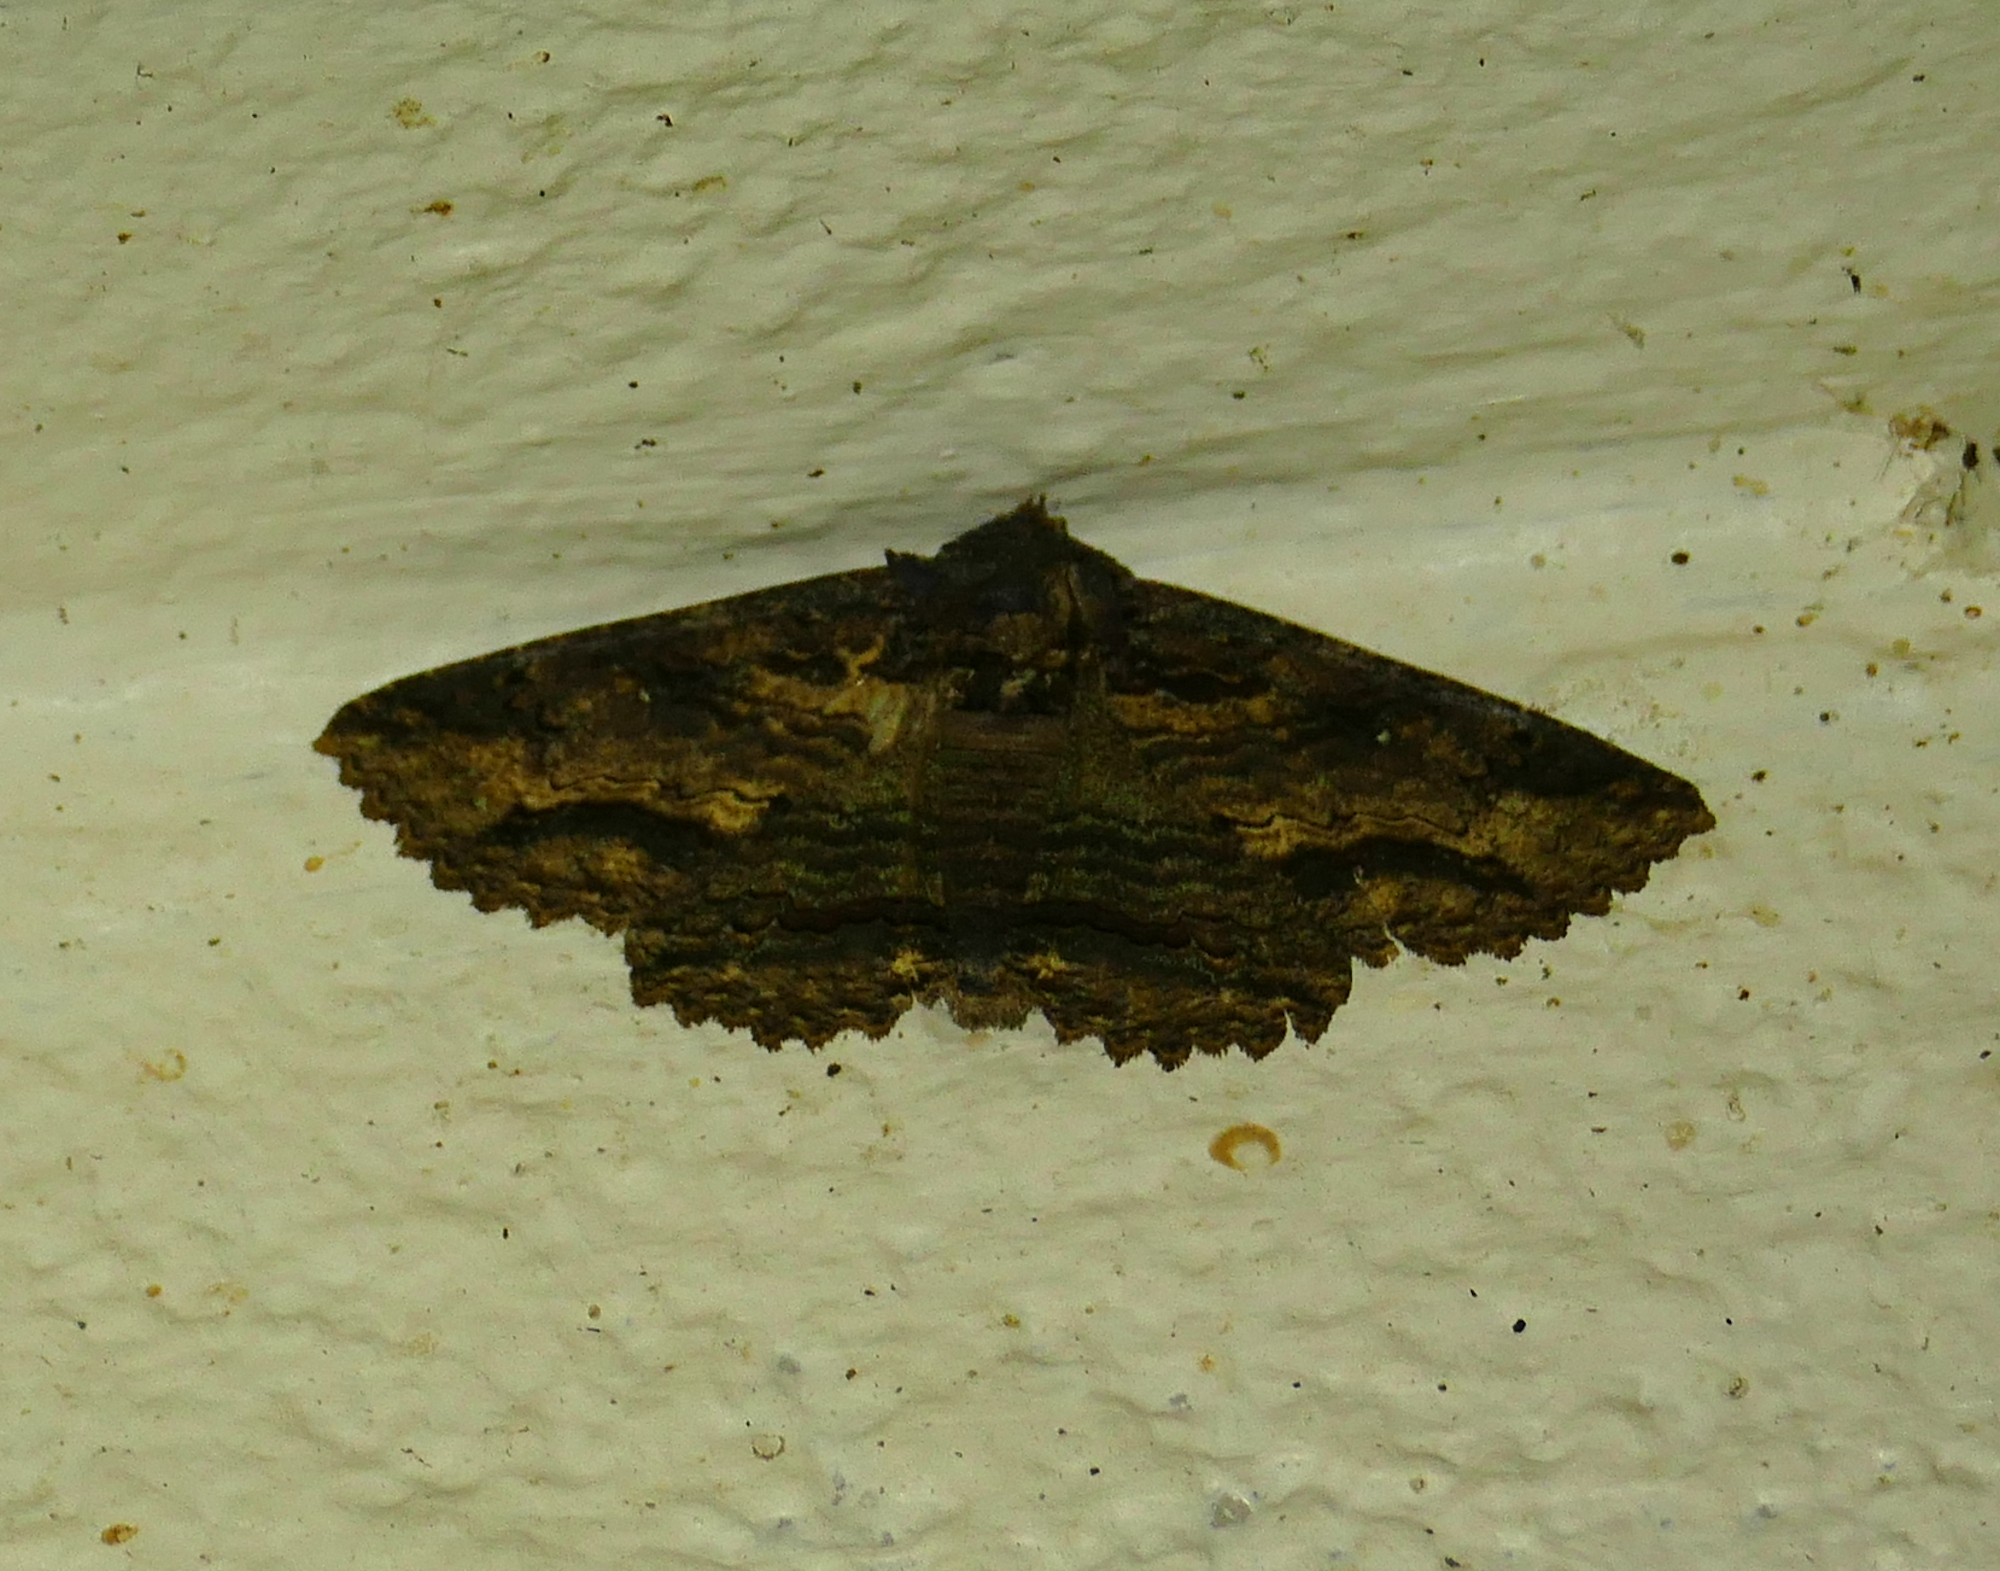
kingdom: Animalia
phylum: Arthropoda
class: Insecta
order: Lepidoptera
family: Erebidae
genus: Zale
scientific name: Zale lunata
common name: Lunate zale moth
